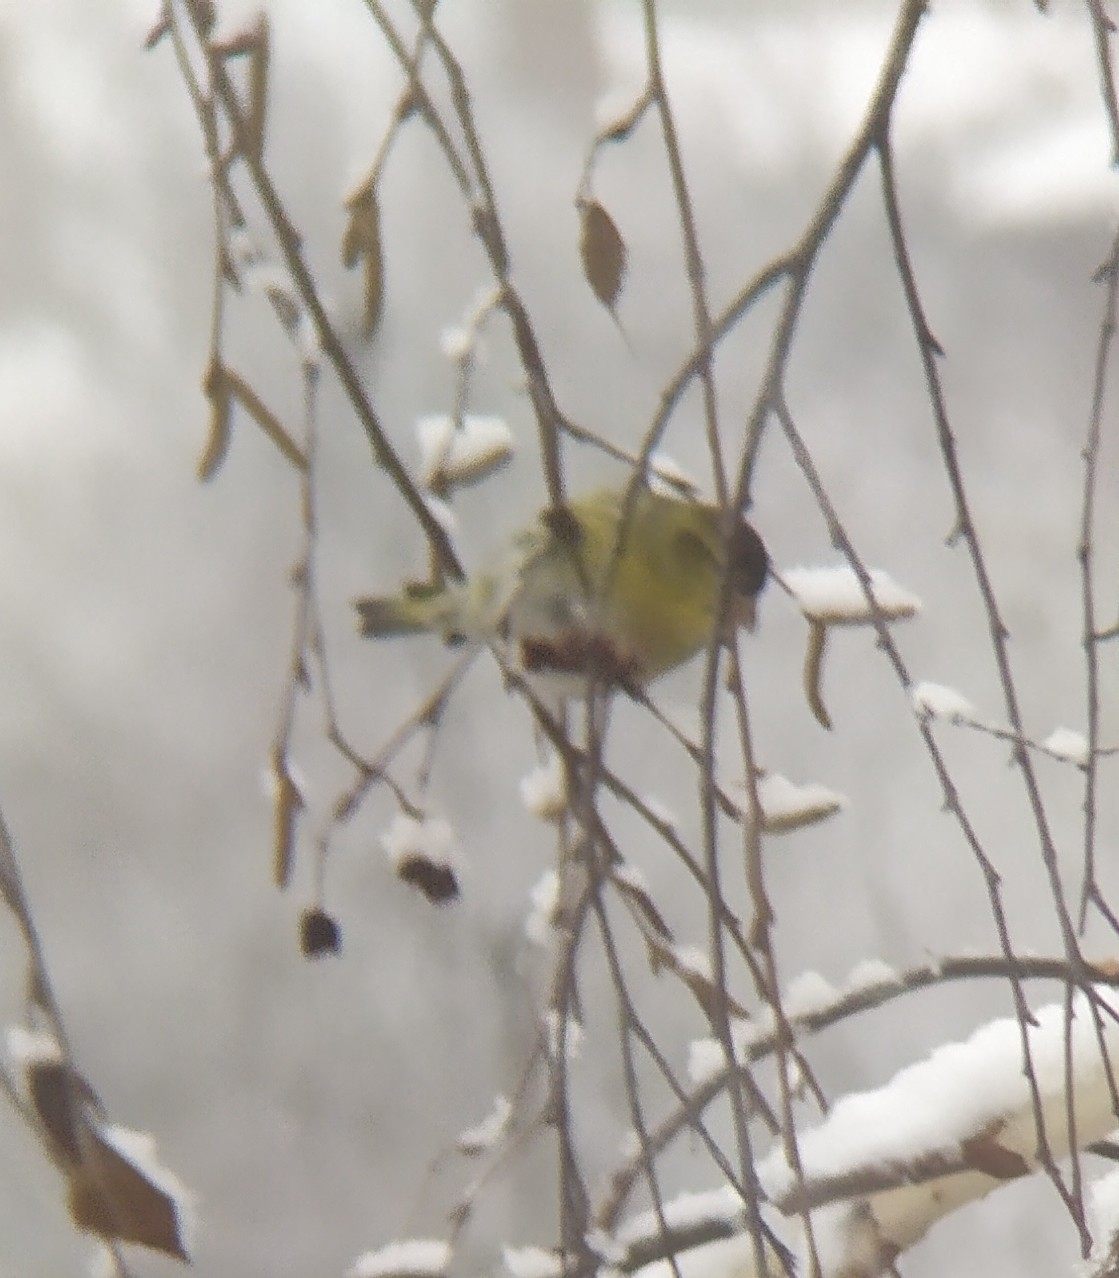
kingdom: Animalia
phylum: Chordata
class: Aves
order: Passeriformes
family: Fringillidae
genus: Spinus
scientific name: Spinus spinus
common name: Eurasian siskin
